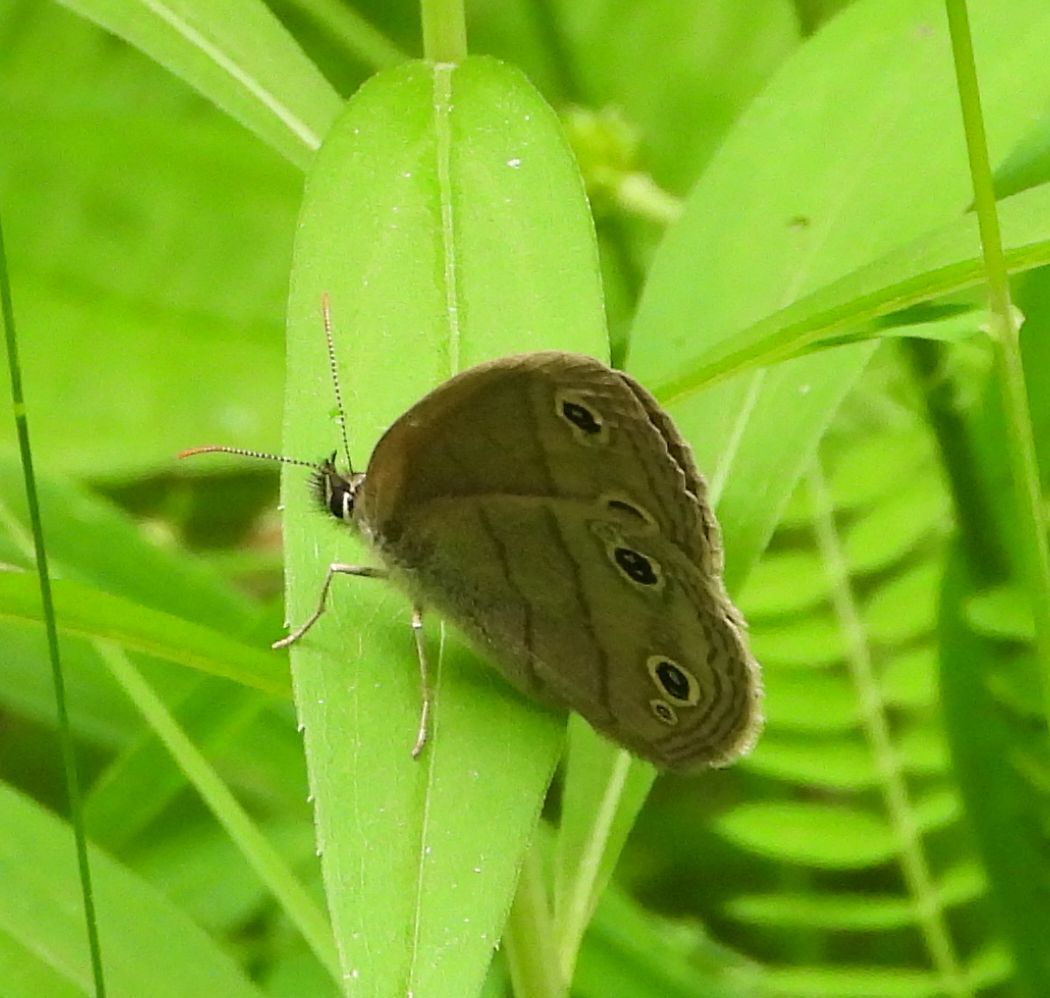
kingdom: Animalia
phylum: Arthropoda
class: Insecta
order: Lepidoptera
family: Nymphalidae
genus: Euptychia
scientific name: Euptychia cymela
